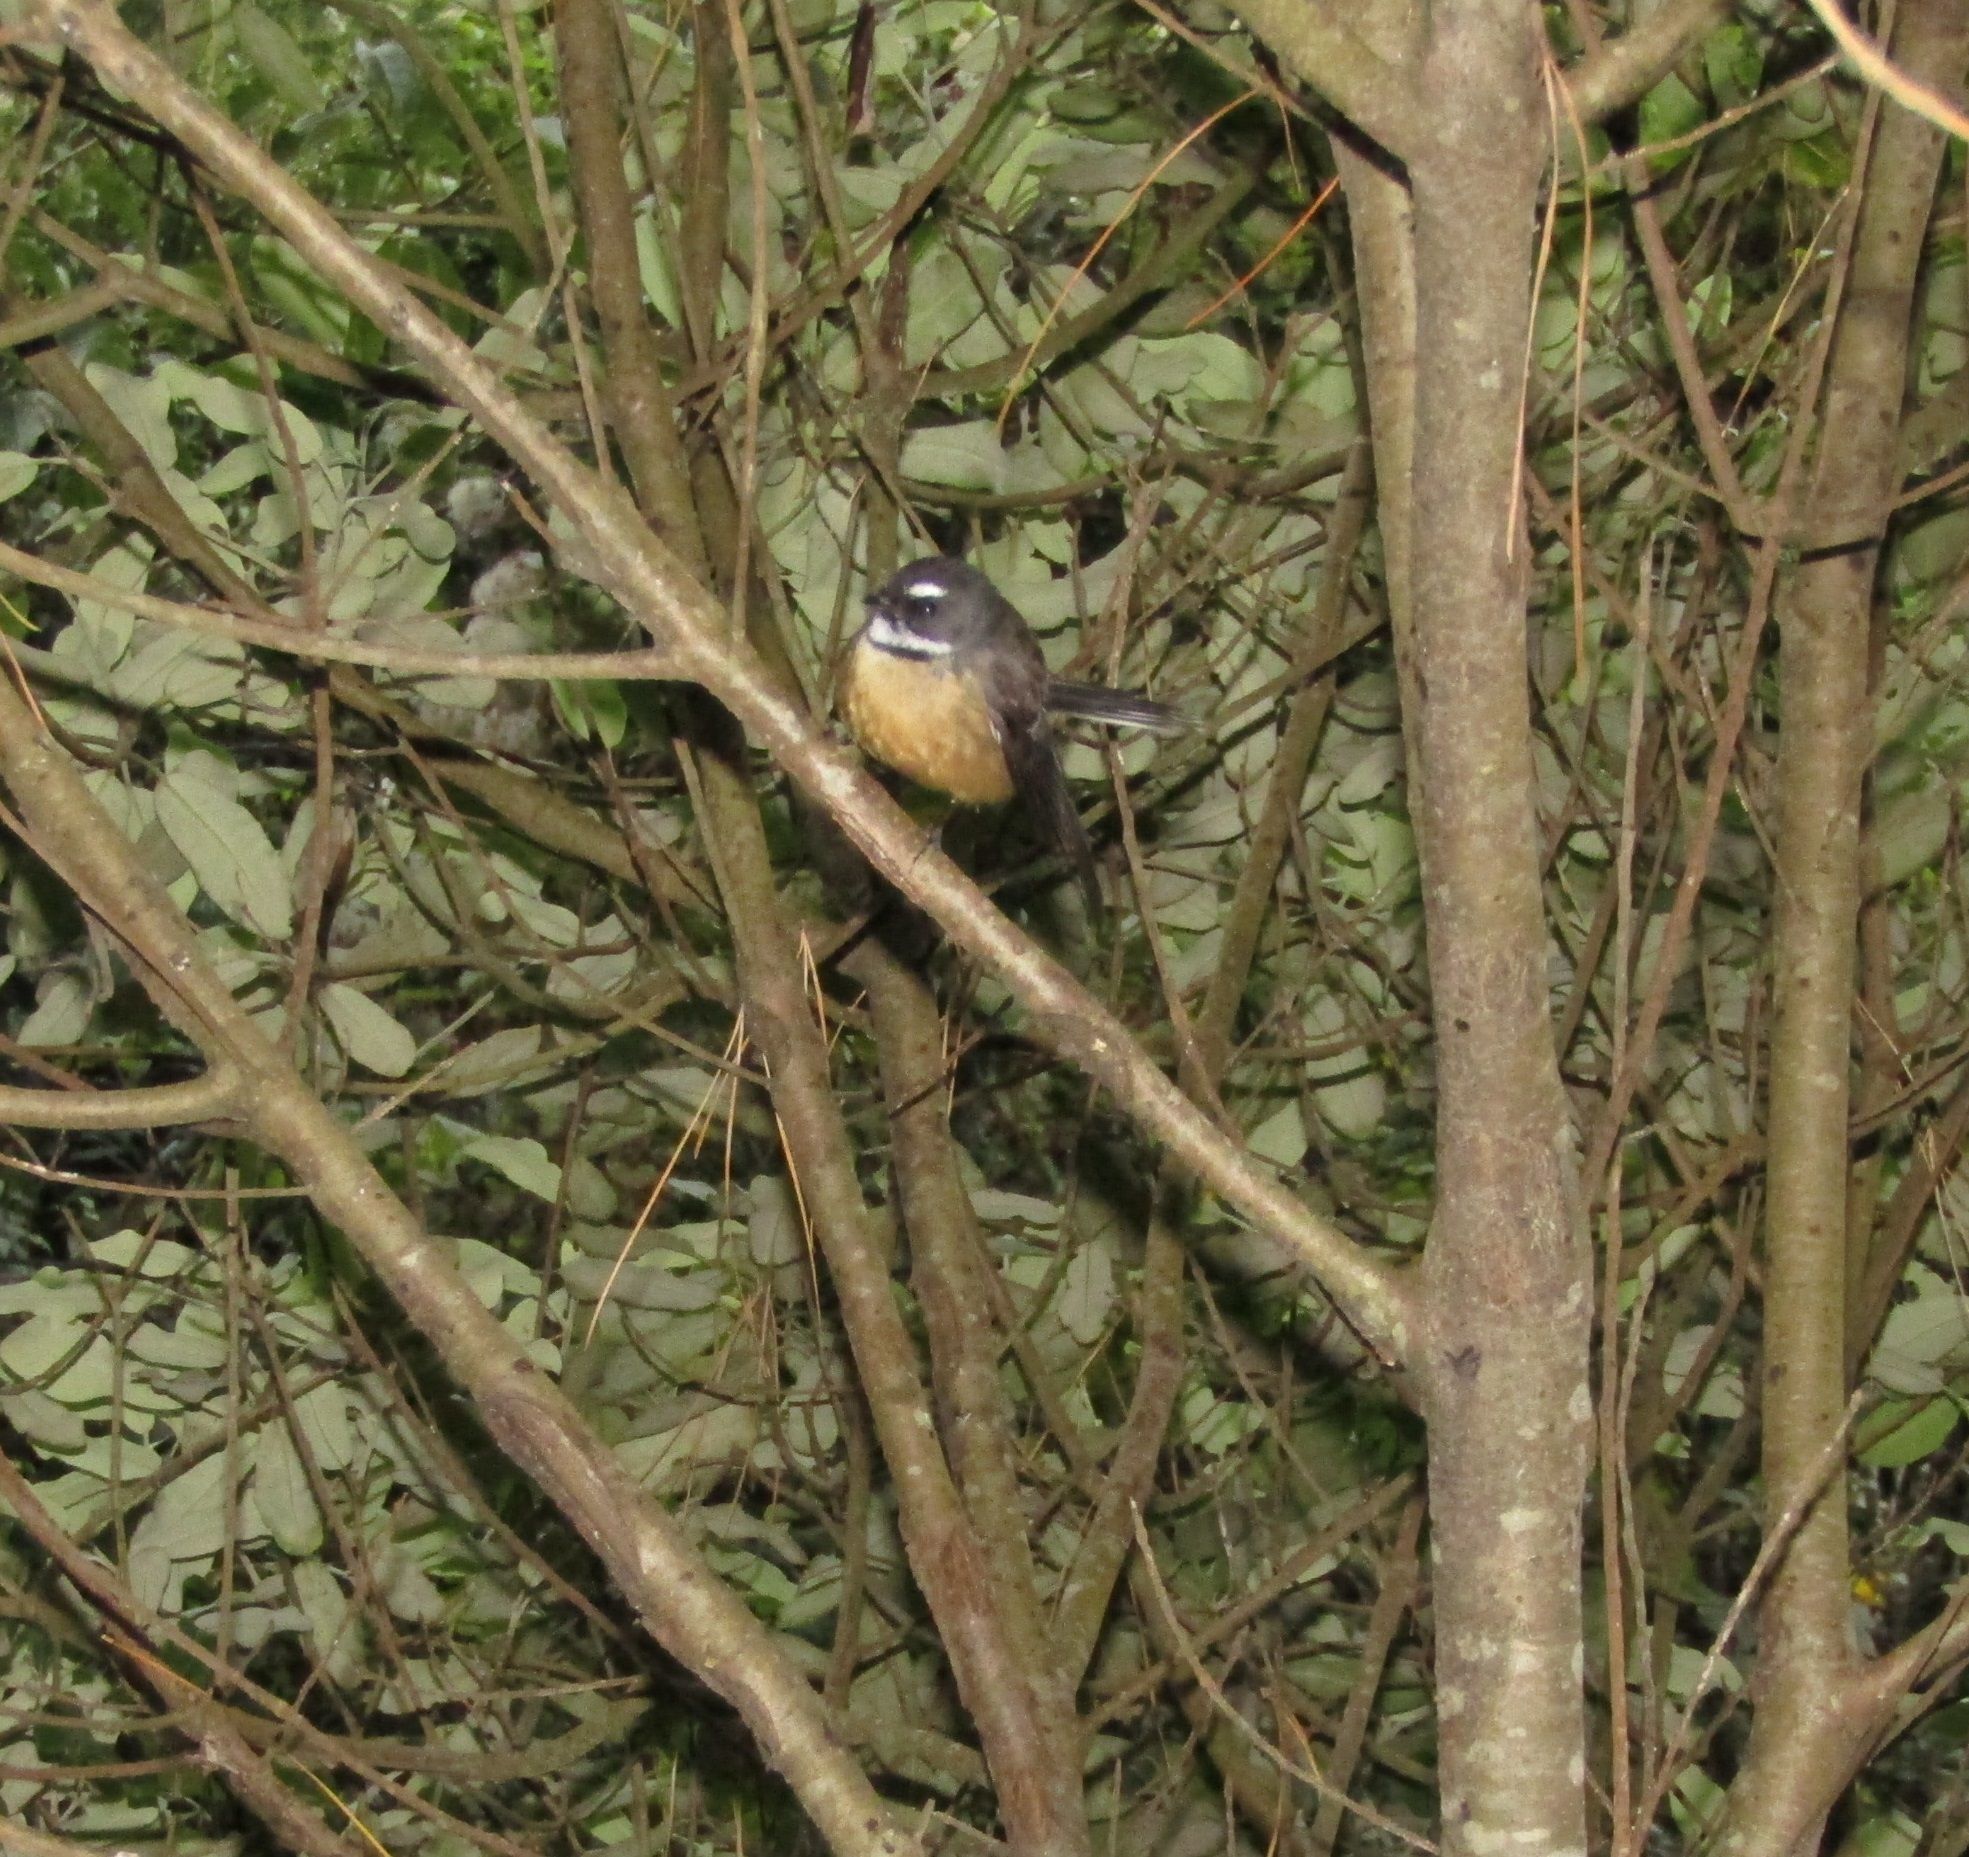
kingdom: Animalia
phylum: Chordata
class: Aves
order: Passeriformes
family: Rhipiduridae
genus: Rhipidura
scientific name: Rhipidura fuliginosa
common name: New zealand fantail
